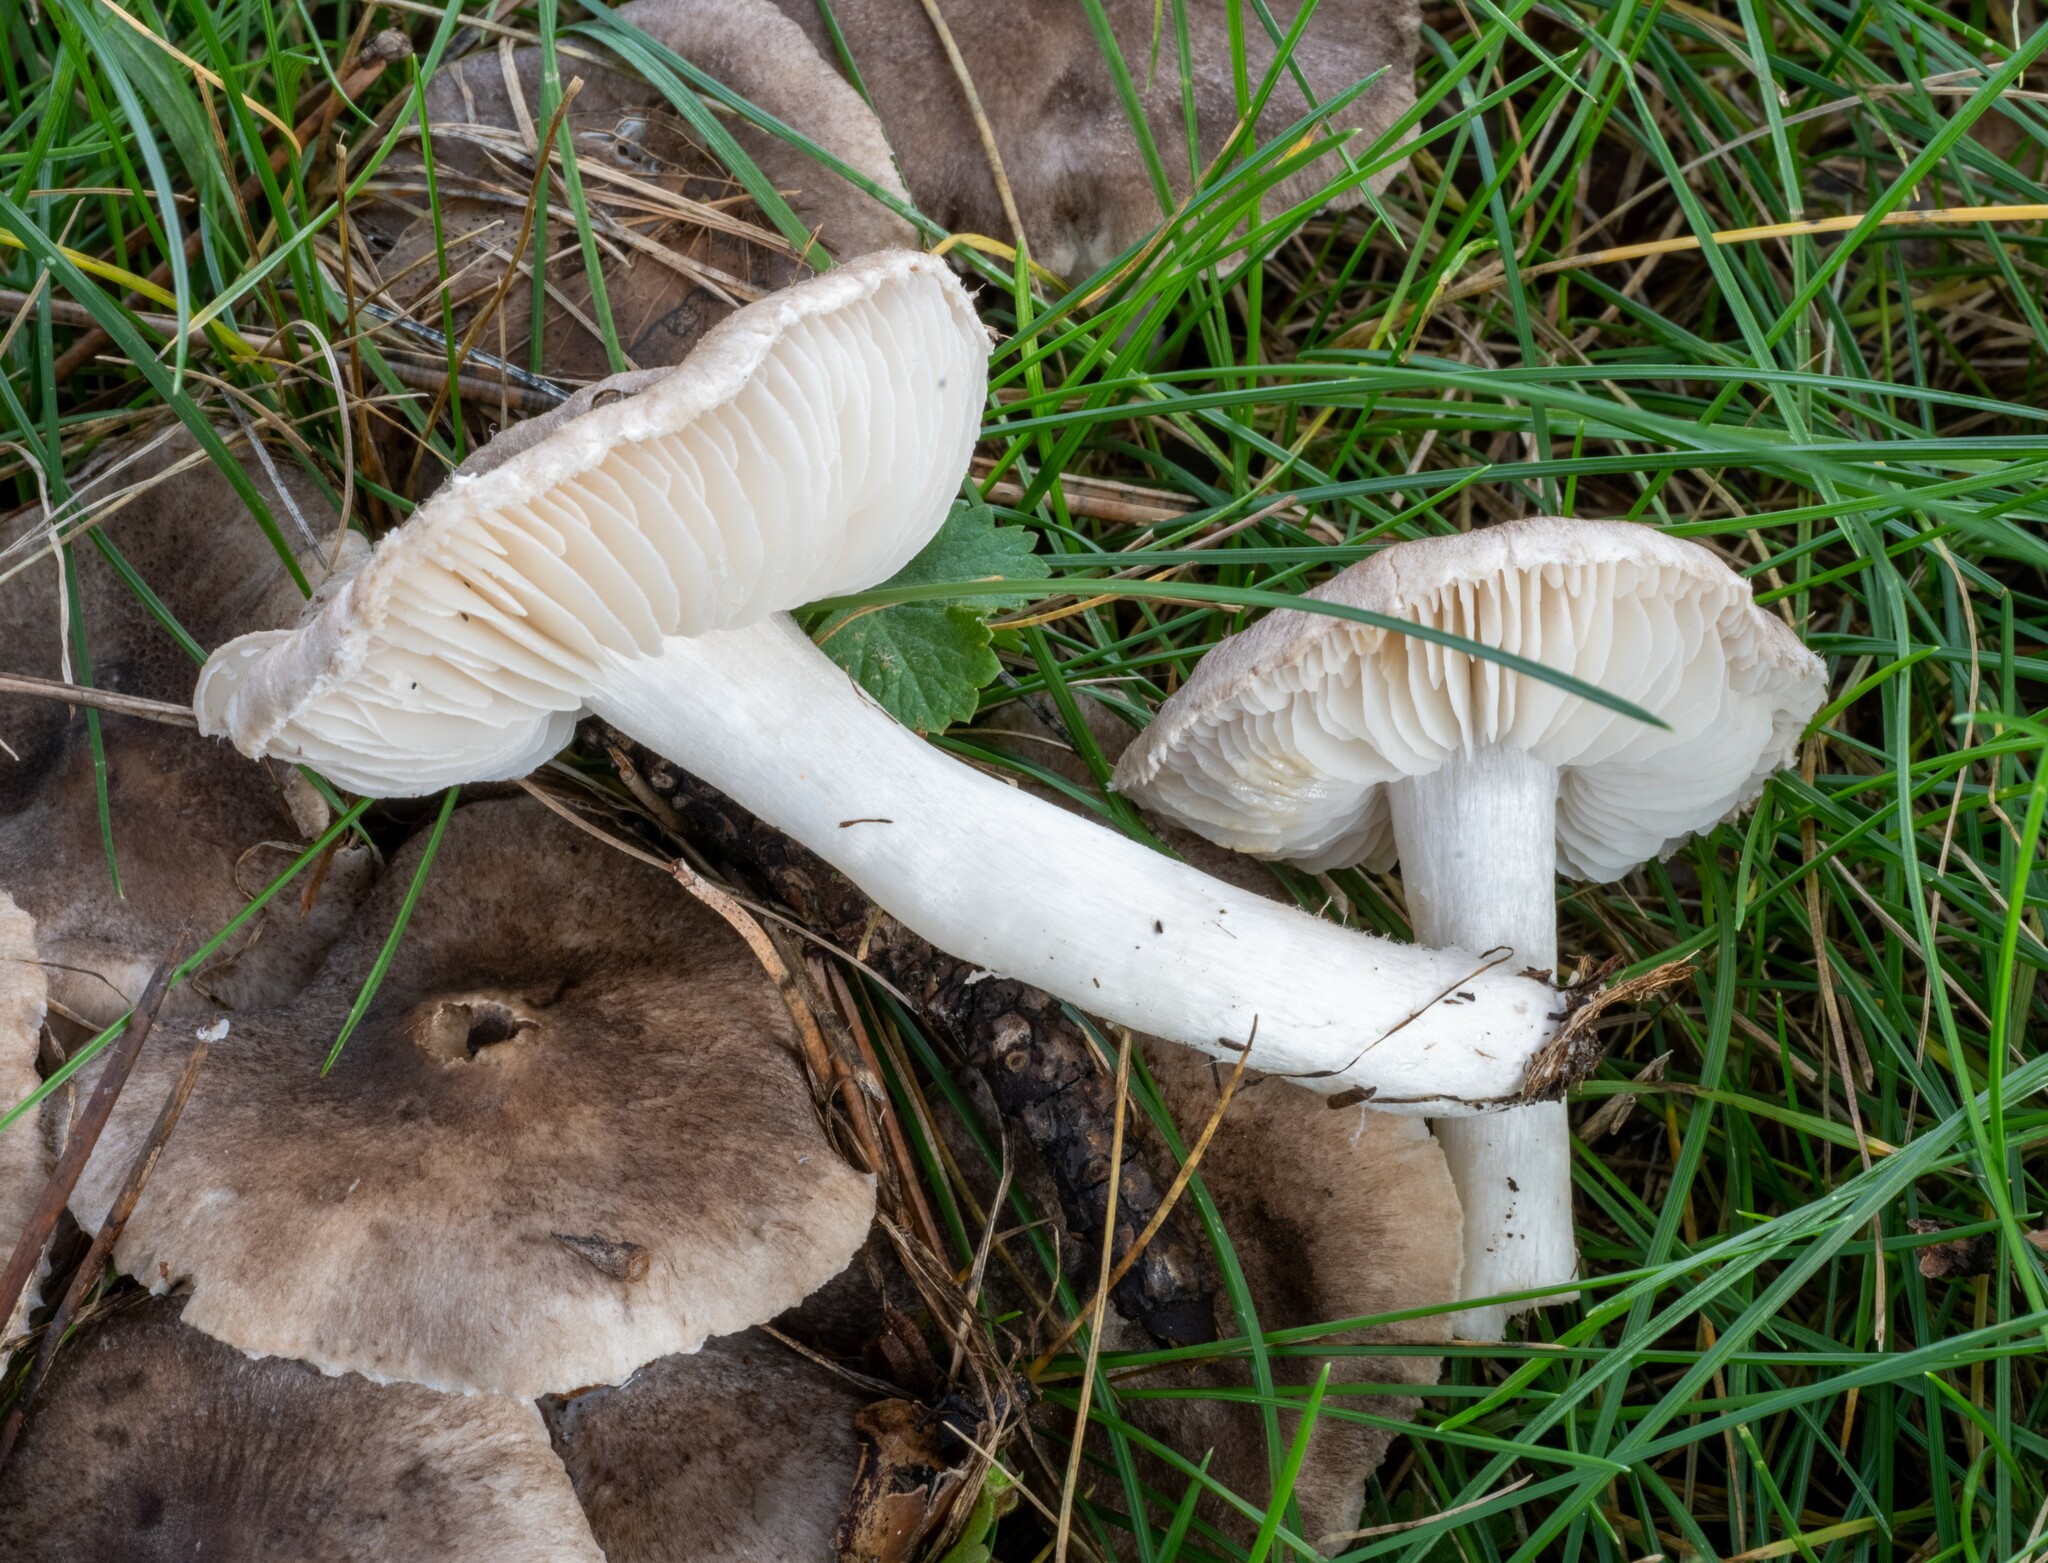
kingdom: Fungi
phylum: Basidiomycota
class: Agaricomycetes
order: Agaricales
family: Tricholomataceae
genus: Tricholoma
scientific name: Tricholoma terreum
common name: Grey knight
